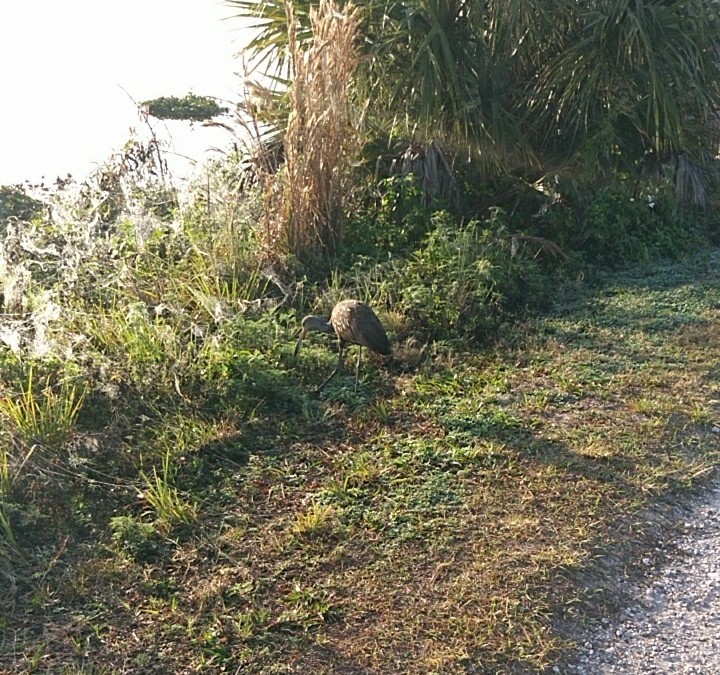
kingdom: Animalia
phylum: Chordata
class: Aves
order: Gruiformes
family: Aramidae
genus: Aramus
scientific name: Aramus guarauna
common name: Limpkin
